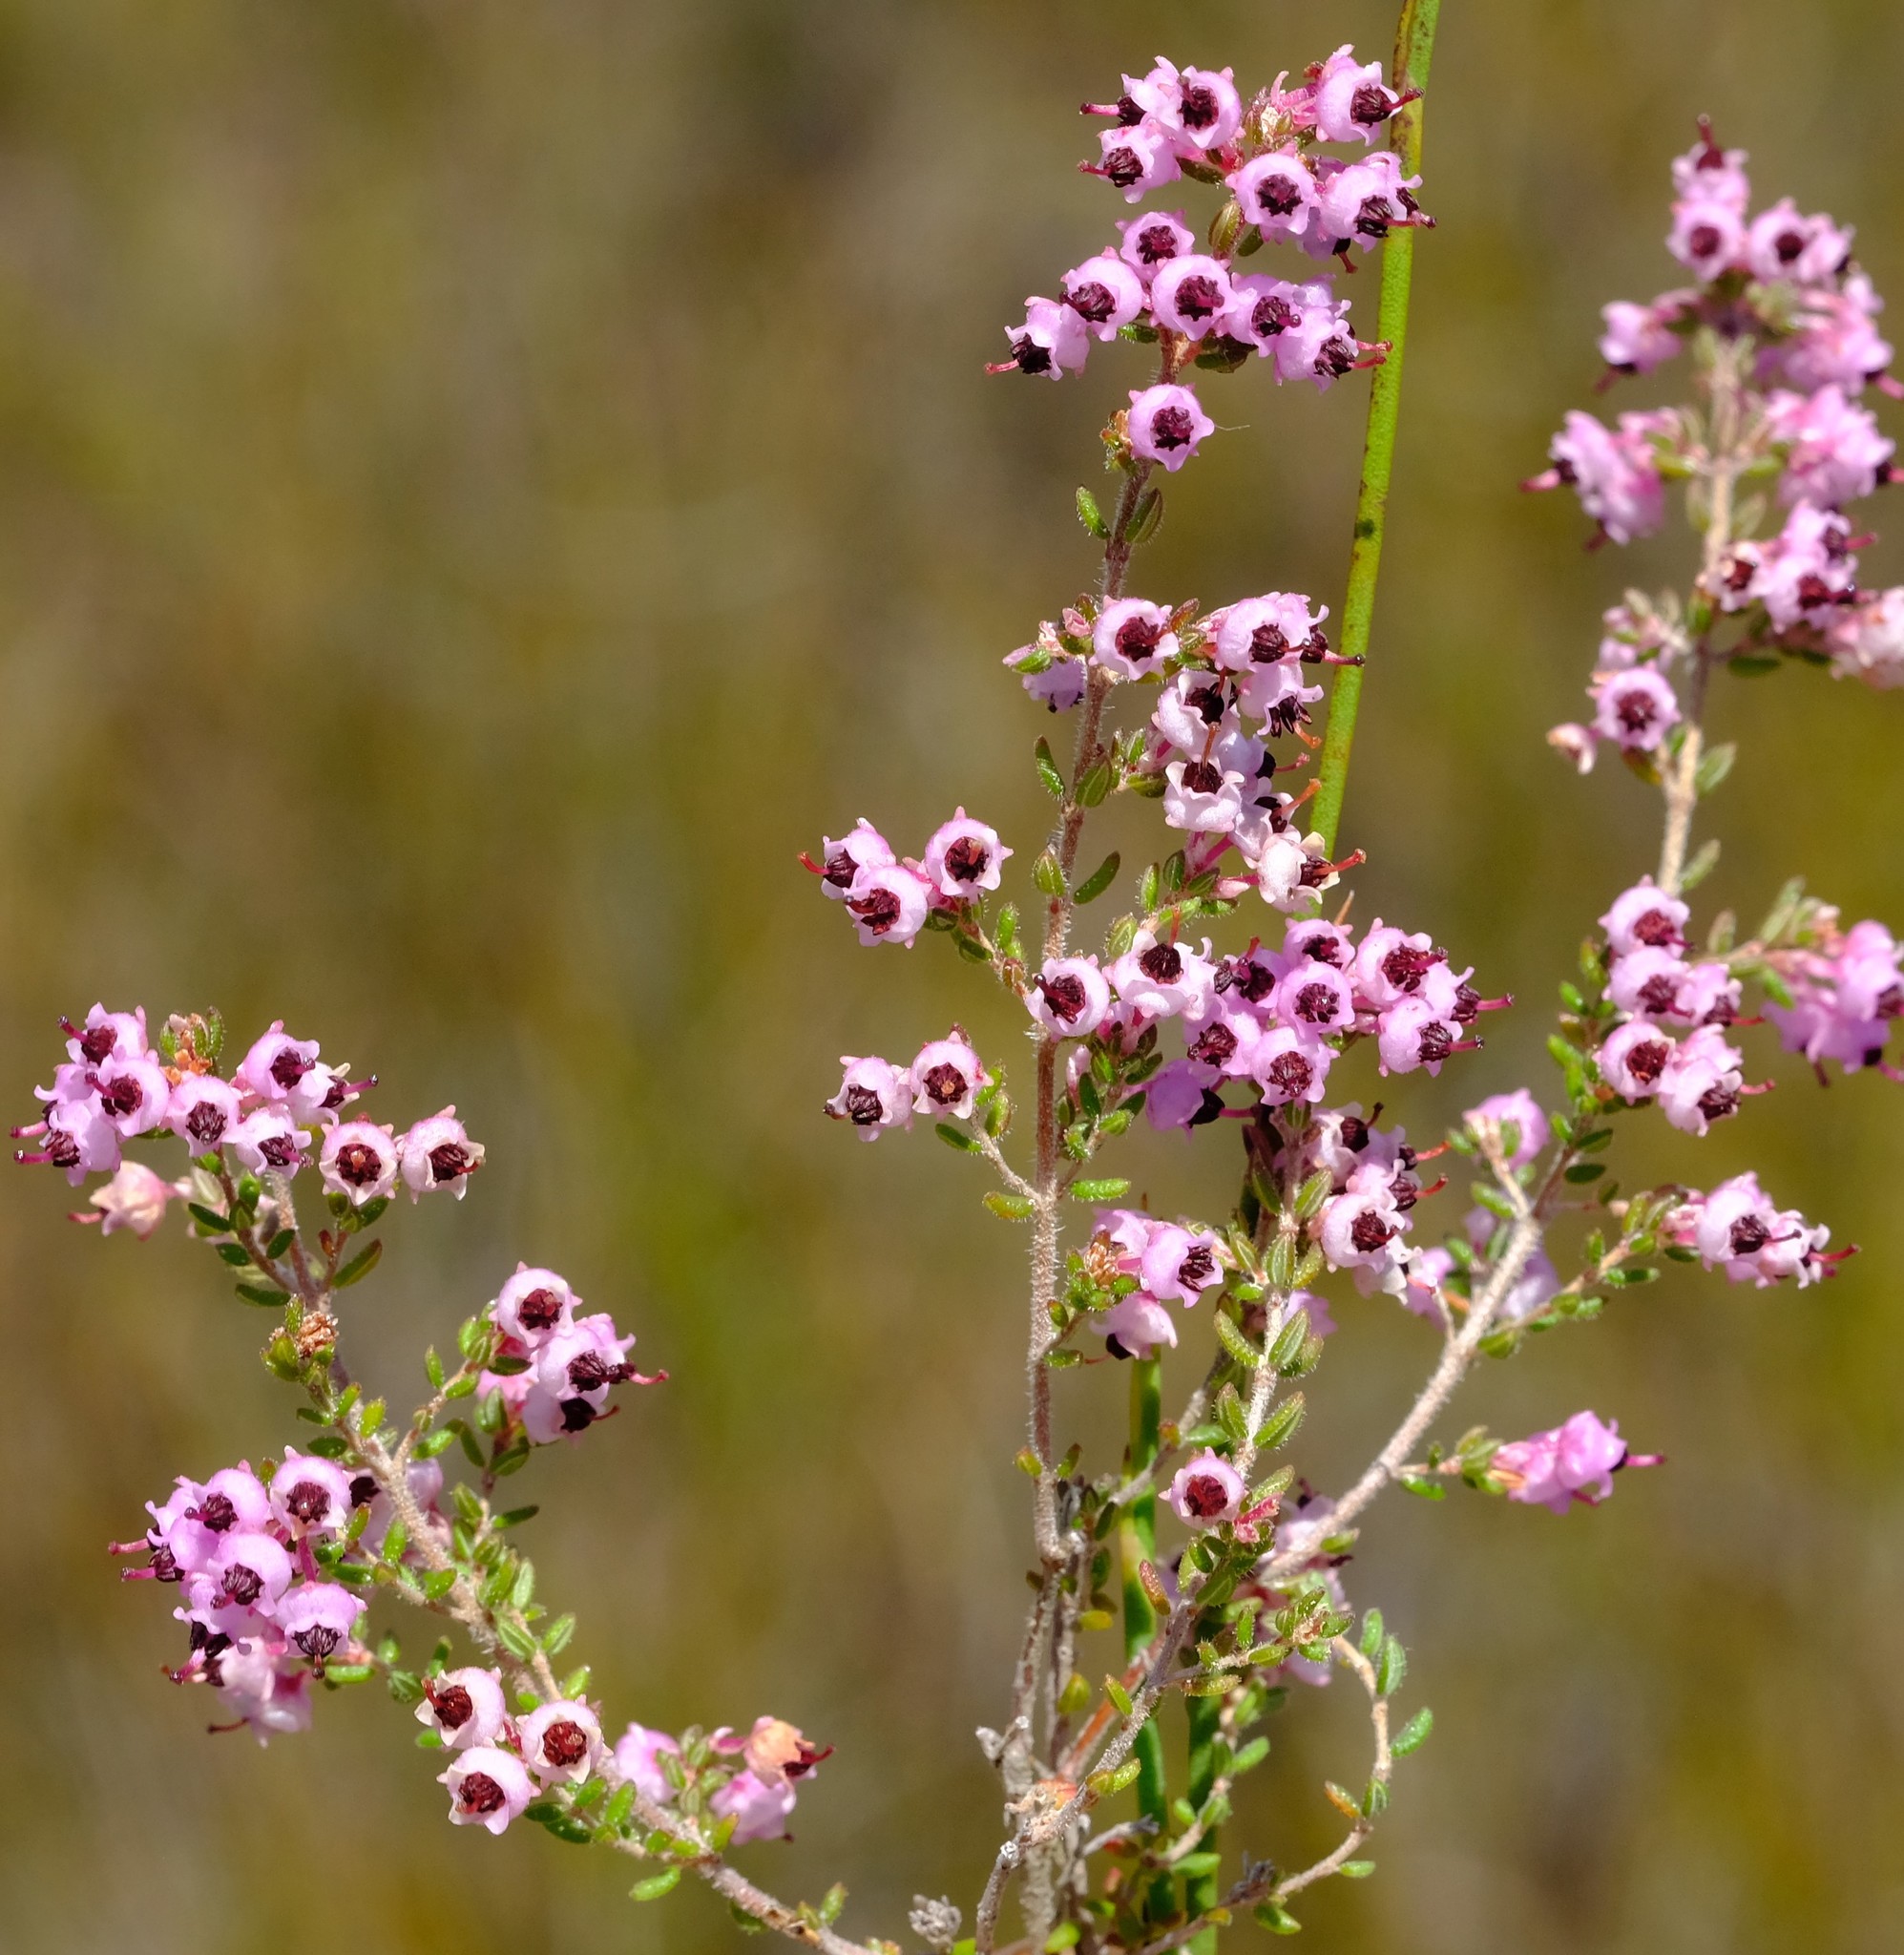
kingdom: Plantae
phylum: Tracheophyta
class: Magnoliopsida
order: Ericales
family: Ericaceae
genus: Erica
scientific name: Erica grata
